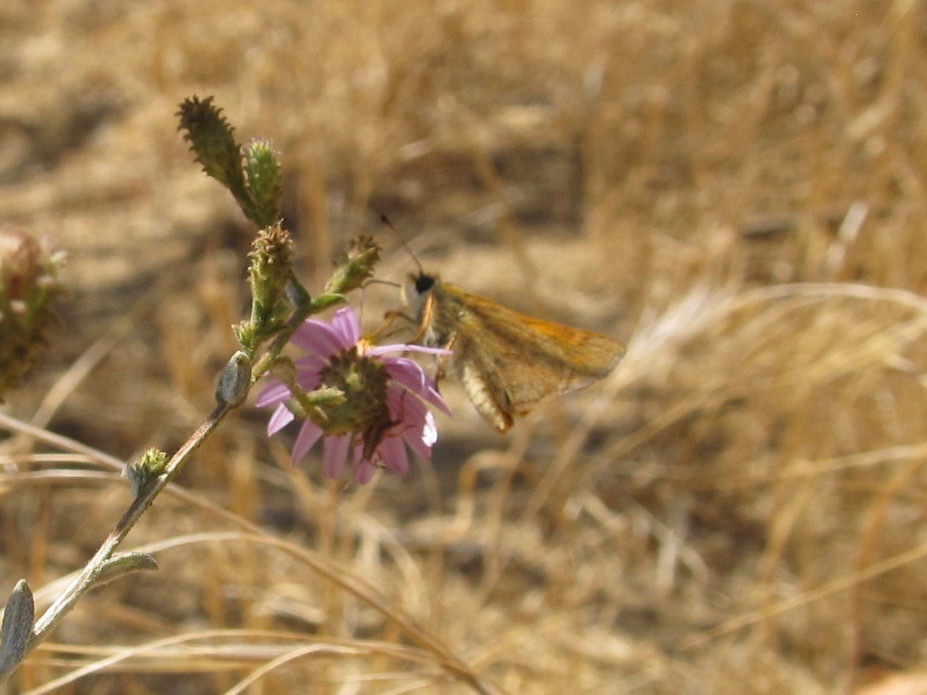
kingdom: Animalia
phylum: Arthropoda
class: Insecta
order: Lepidoptera
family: Hesperiidae
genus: Ochlodes
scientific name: Ochlodes sylvanoides
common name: Woodland skipper
